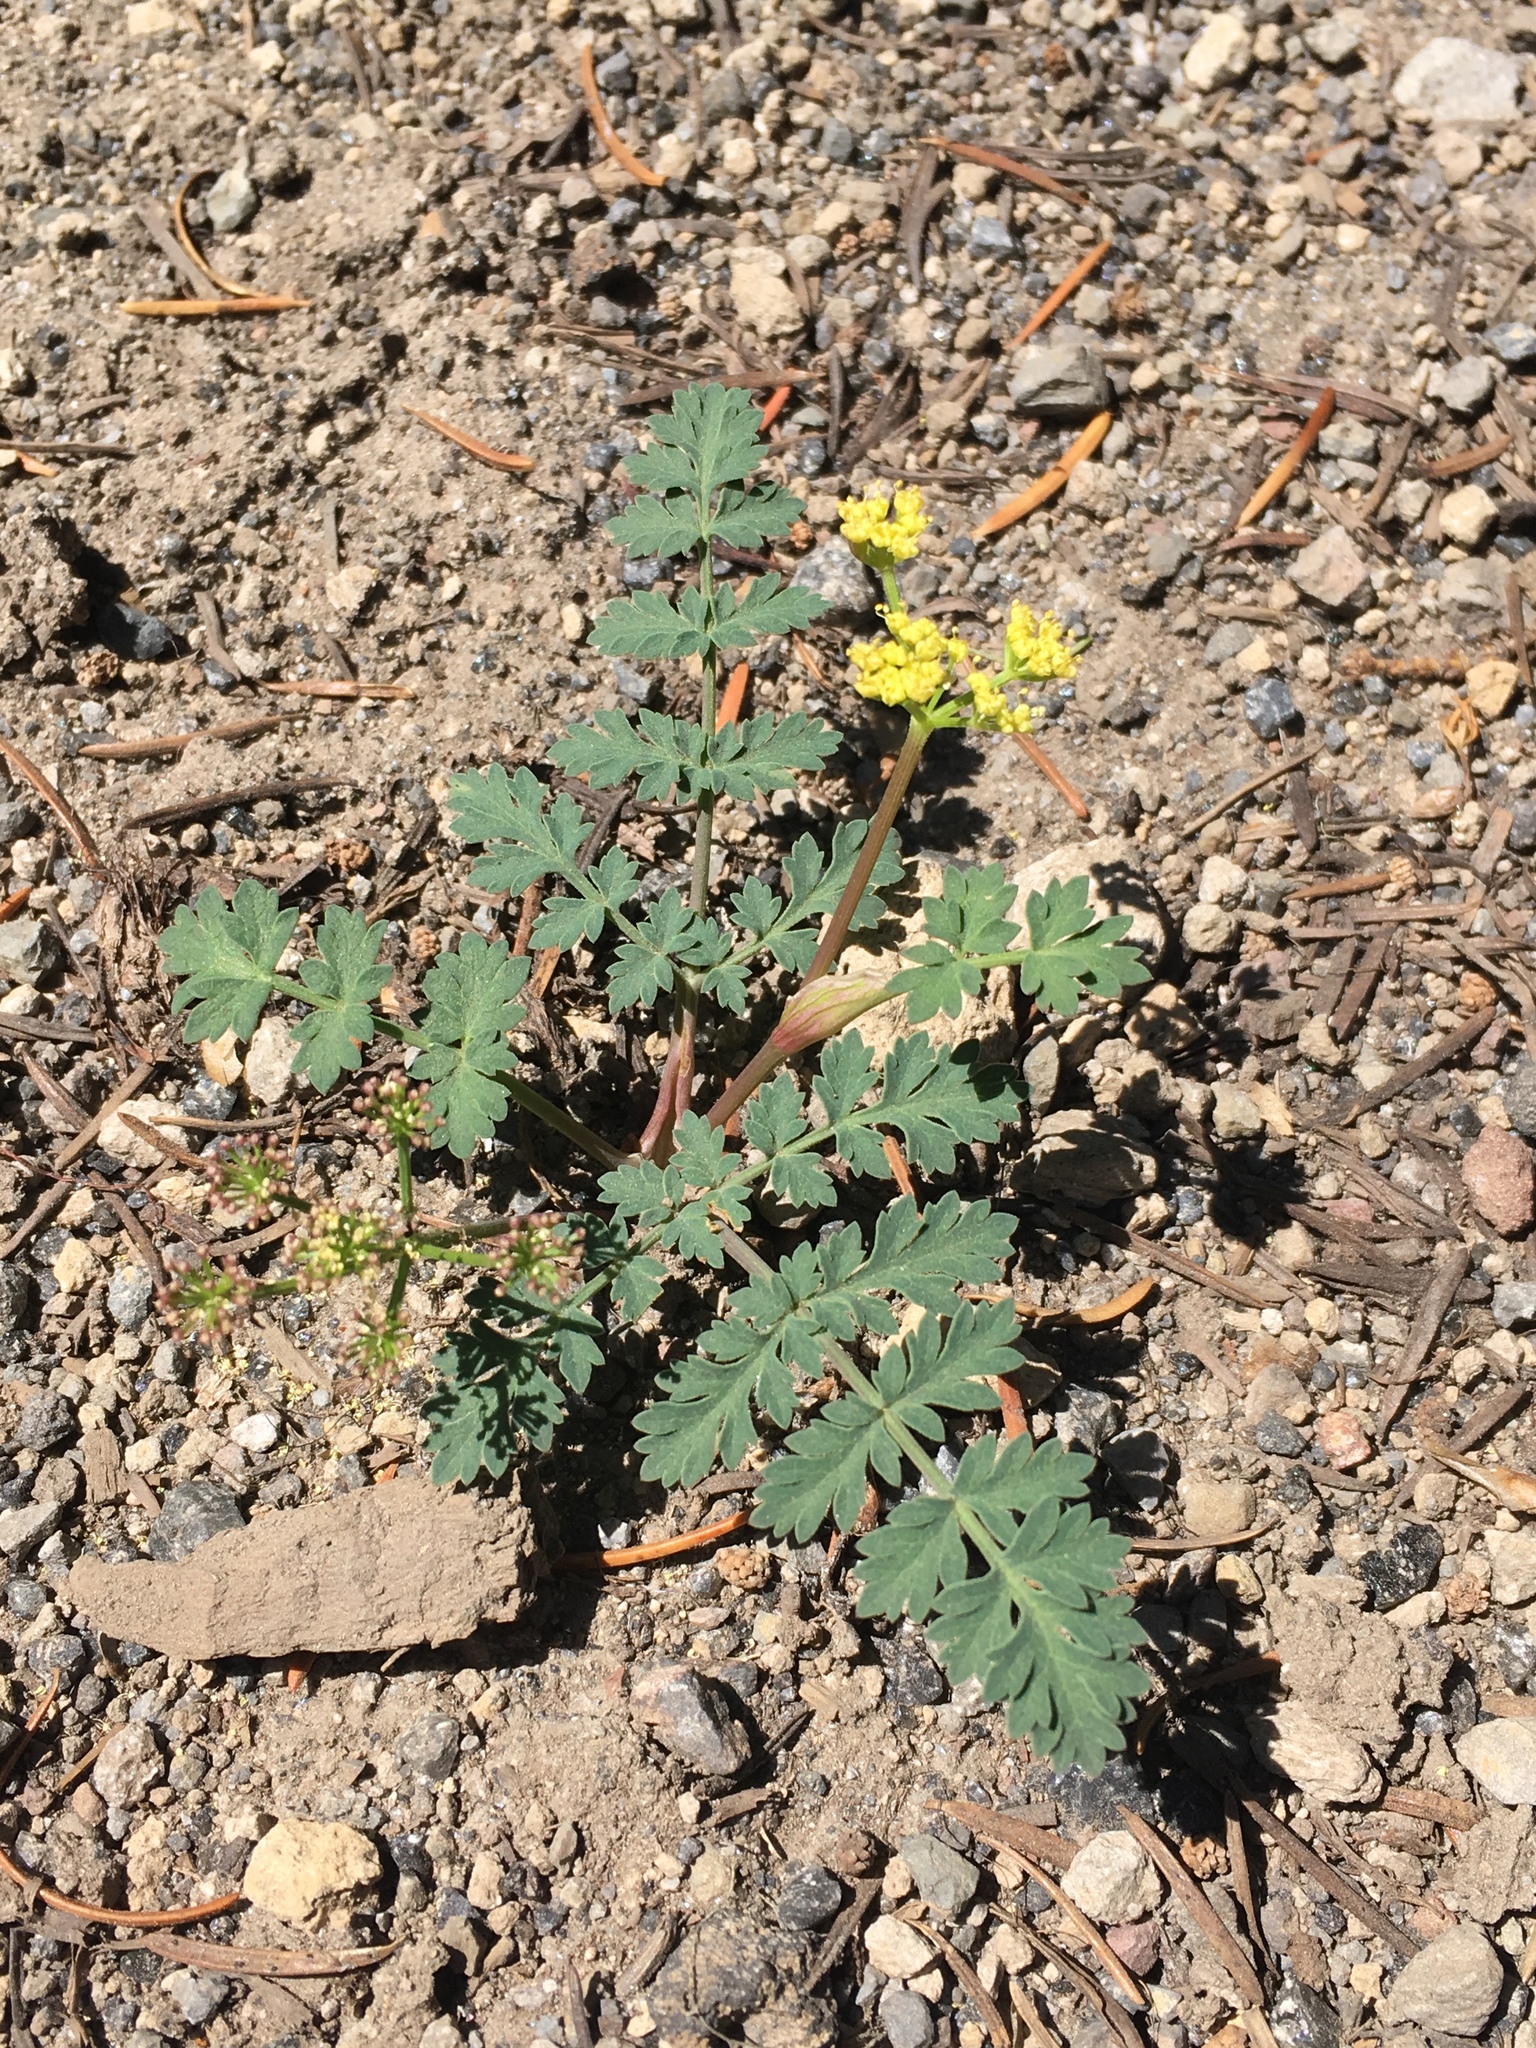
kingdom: Plantae
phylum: Tracheophyta
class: Magnoliopsida
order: Apiales
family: Apiaceae
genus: Lomatium
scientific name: Lomatium martindalei
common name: Cascade desert-parsley
